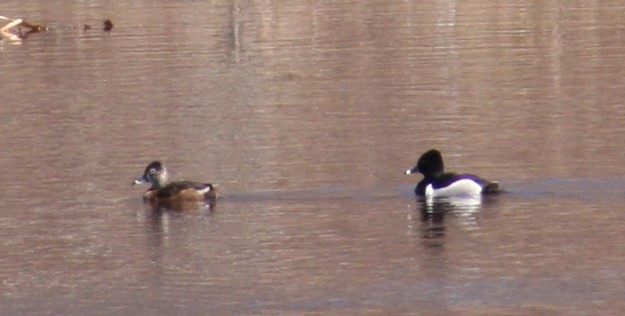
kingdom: Animalia
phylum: Chordata
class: Aves
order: Anseriformes
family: Anatidae
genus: Aythya
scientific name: Aythya collaris
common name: Ring-necked duck
